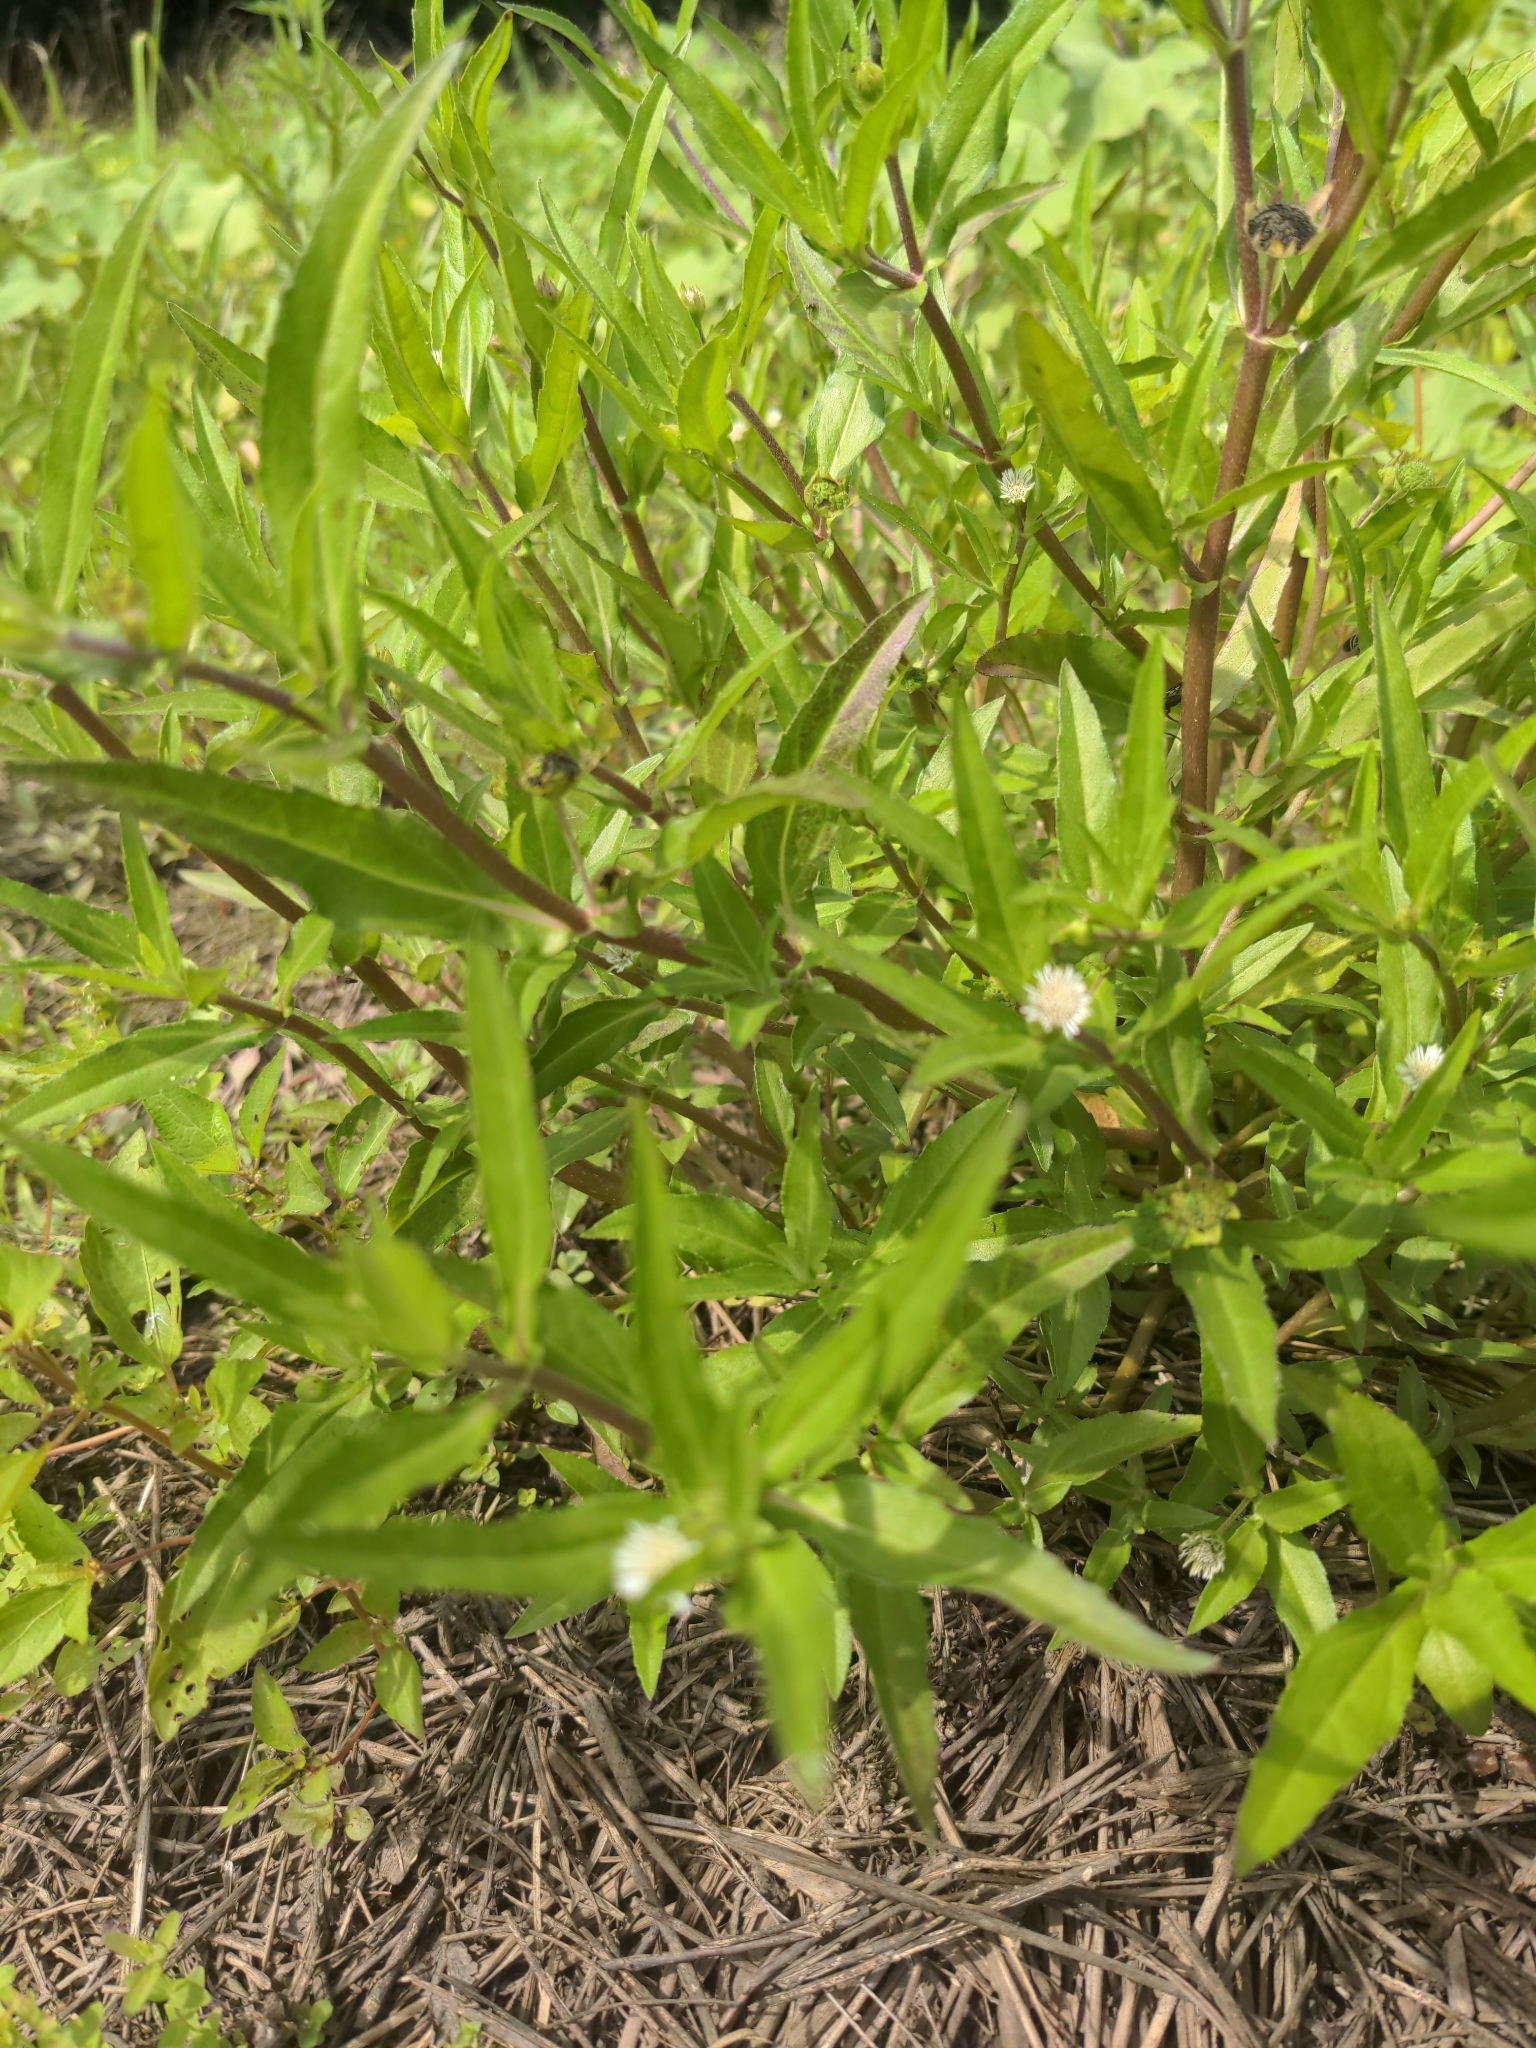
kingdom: Plantae
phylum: Tracheophyta
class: Magnoliopsida
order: Asterales
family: Asteraceae
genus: Eclipta
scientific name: Eclipta prostrata
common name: False daisy
